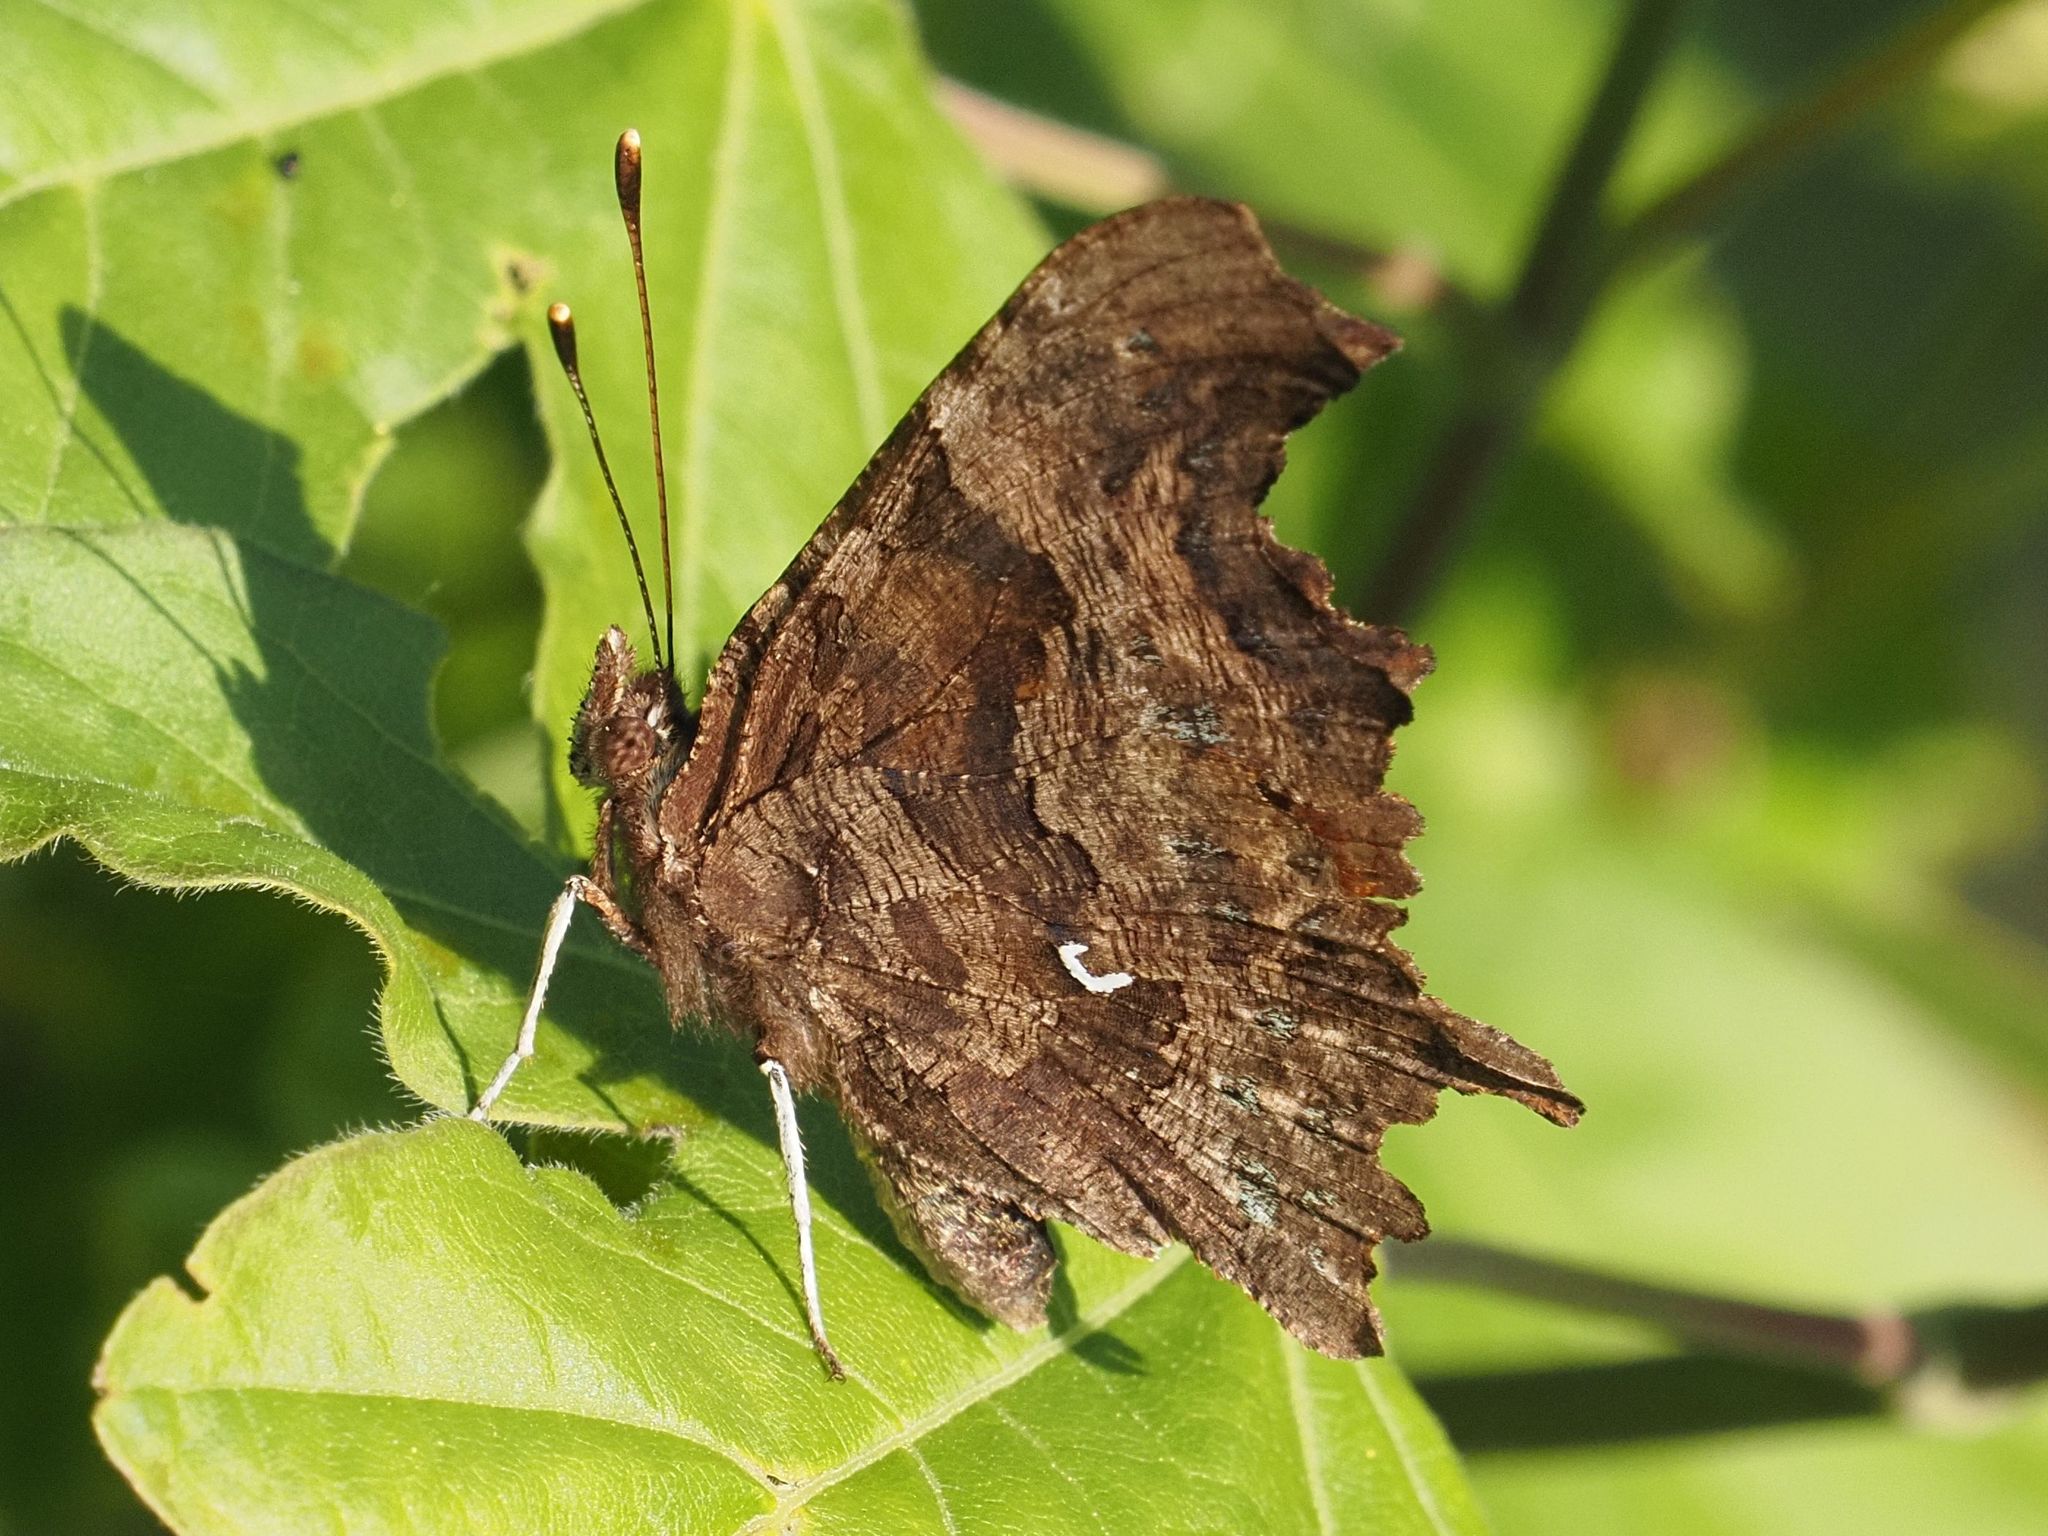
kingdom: Animalia
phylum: Arthropoda
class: Insecta
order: Lepidoptera
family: Nymphalidae
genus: Polygonia
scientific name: Polygonia c-album
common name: Comma
